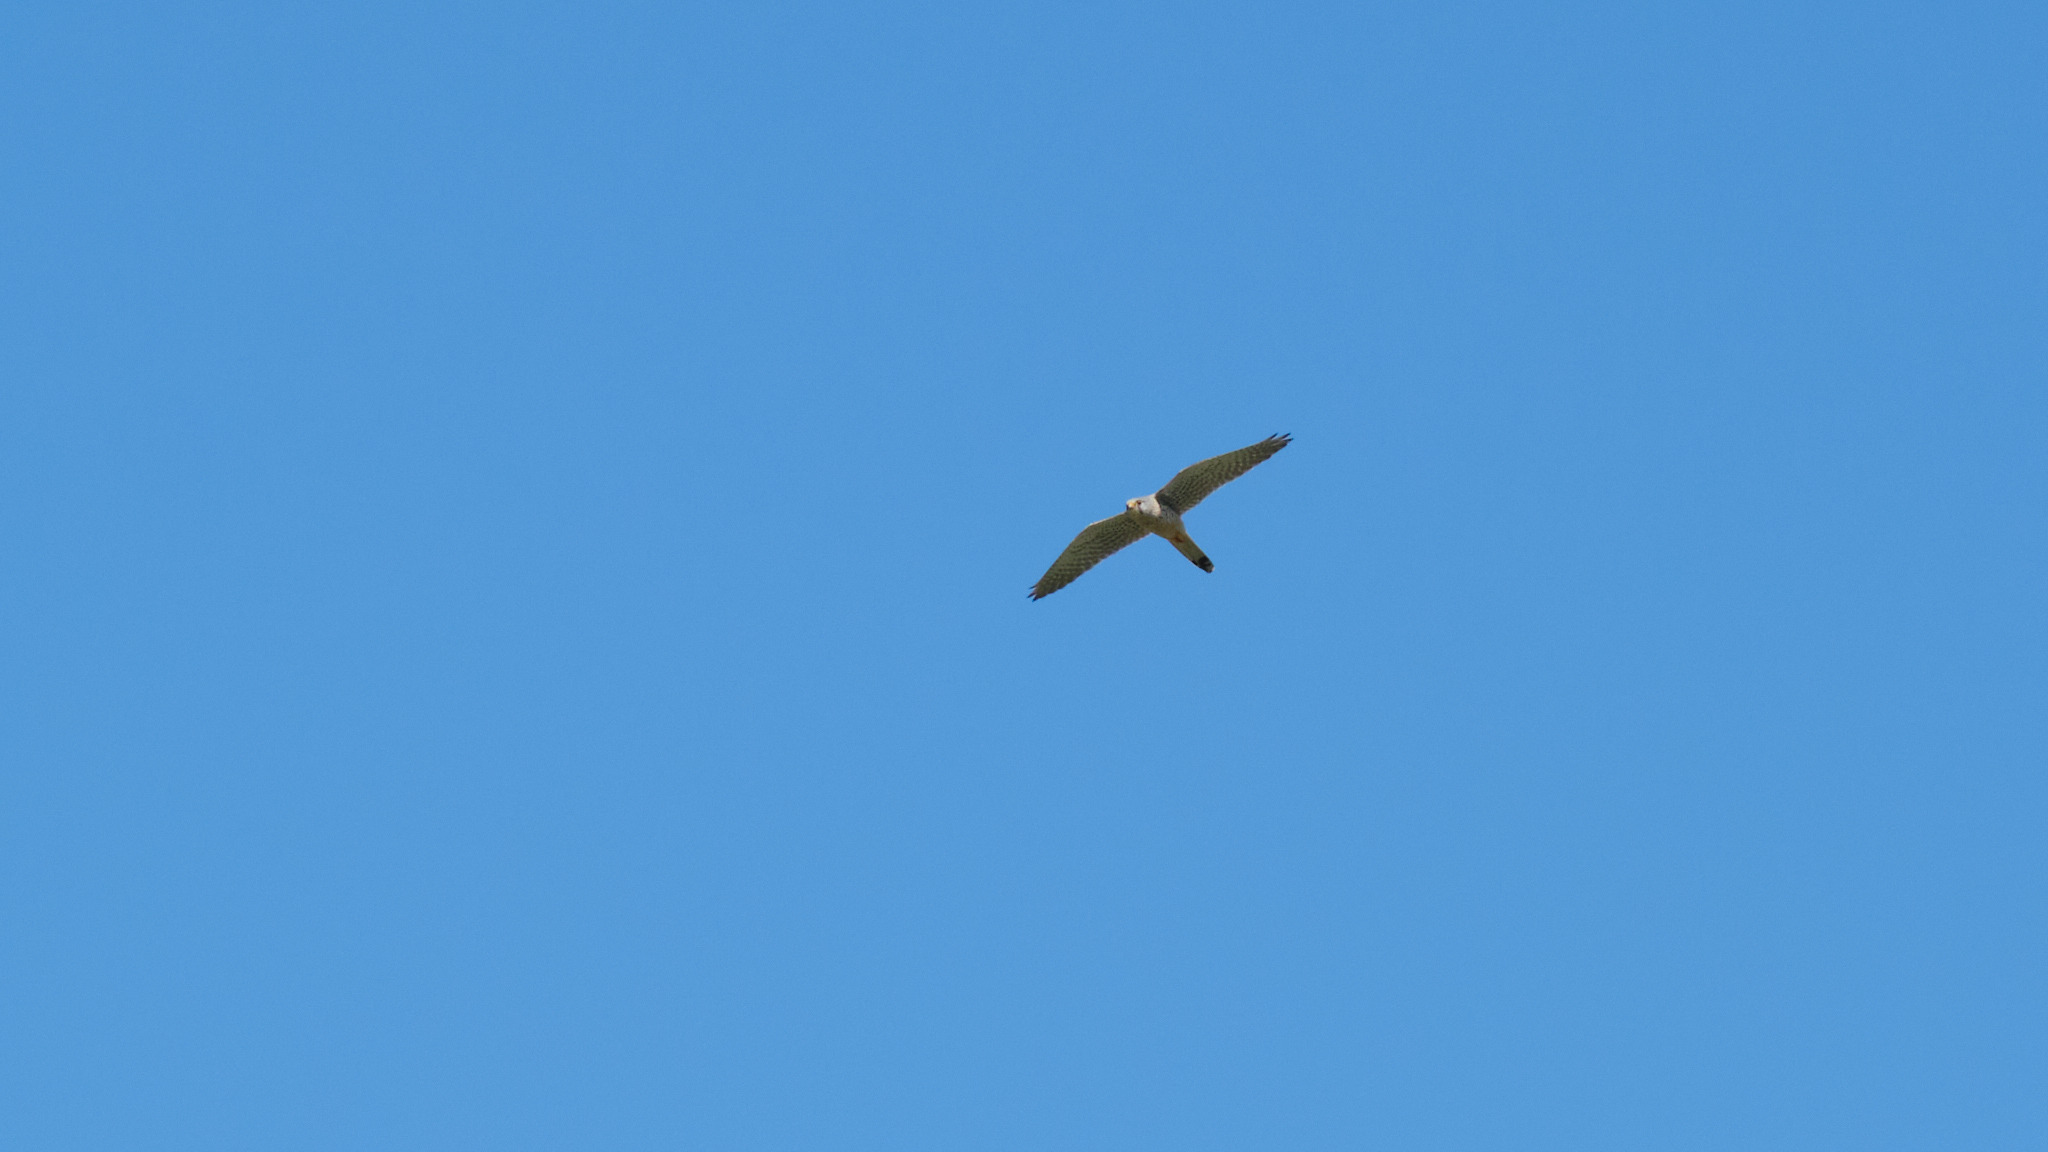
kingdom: Animalia
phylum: Chordata
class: Aves
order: Falconiformes
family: Falconidae
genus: Falco
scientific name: Falco tinnunculus
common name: Common kestrel
